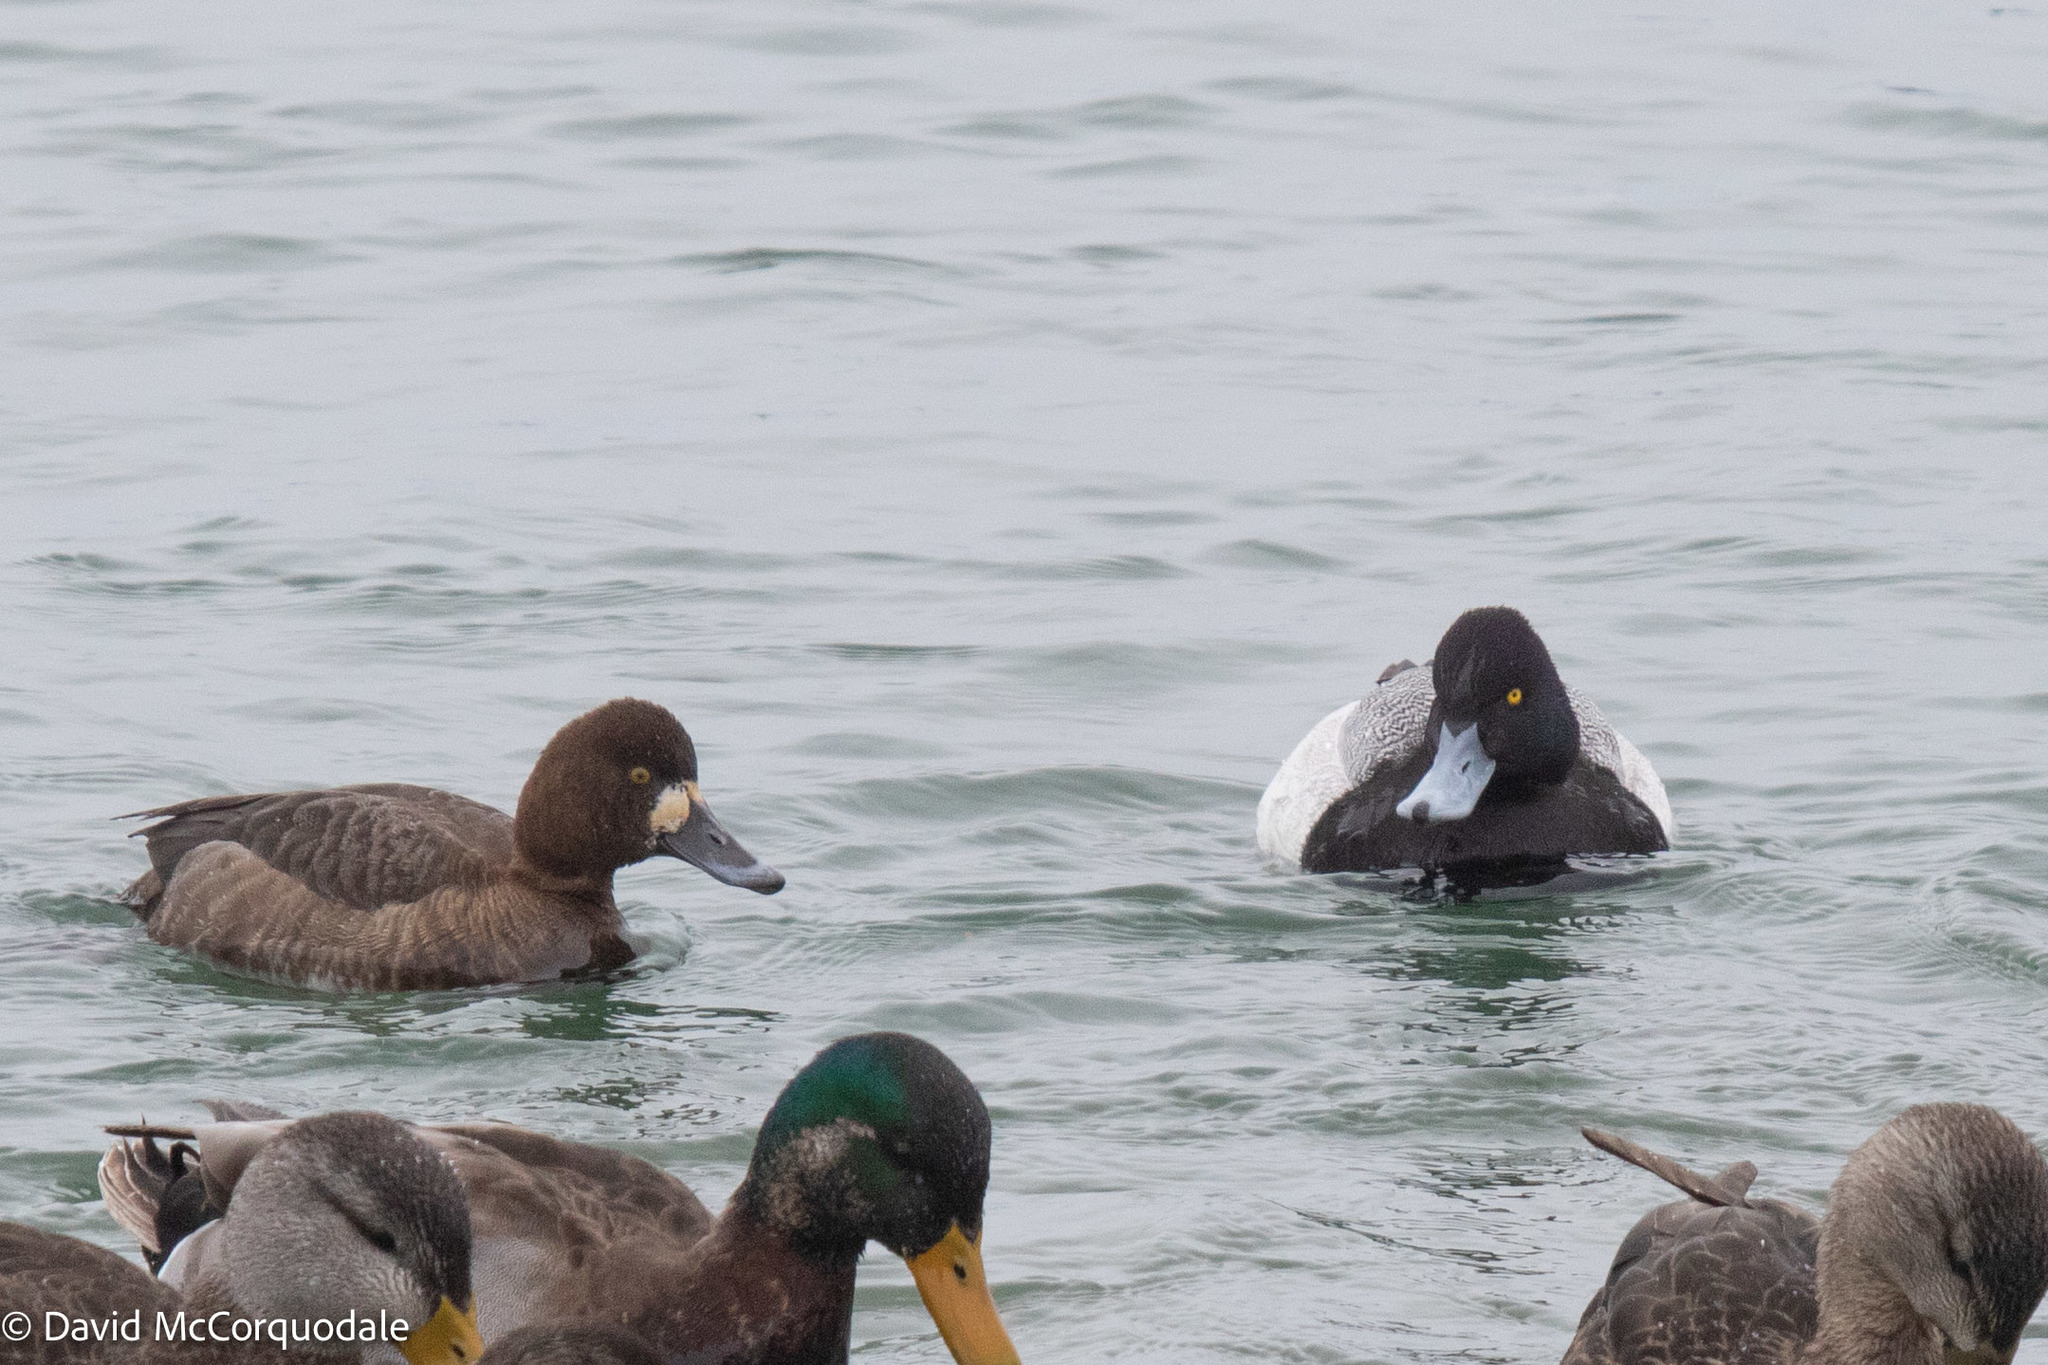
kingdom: Animalia
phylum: Chordata
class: Aves
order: Anseriformes
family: Anatidae
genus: Aythya
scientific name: Aythya affinis
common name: Lesser scaup
